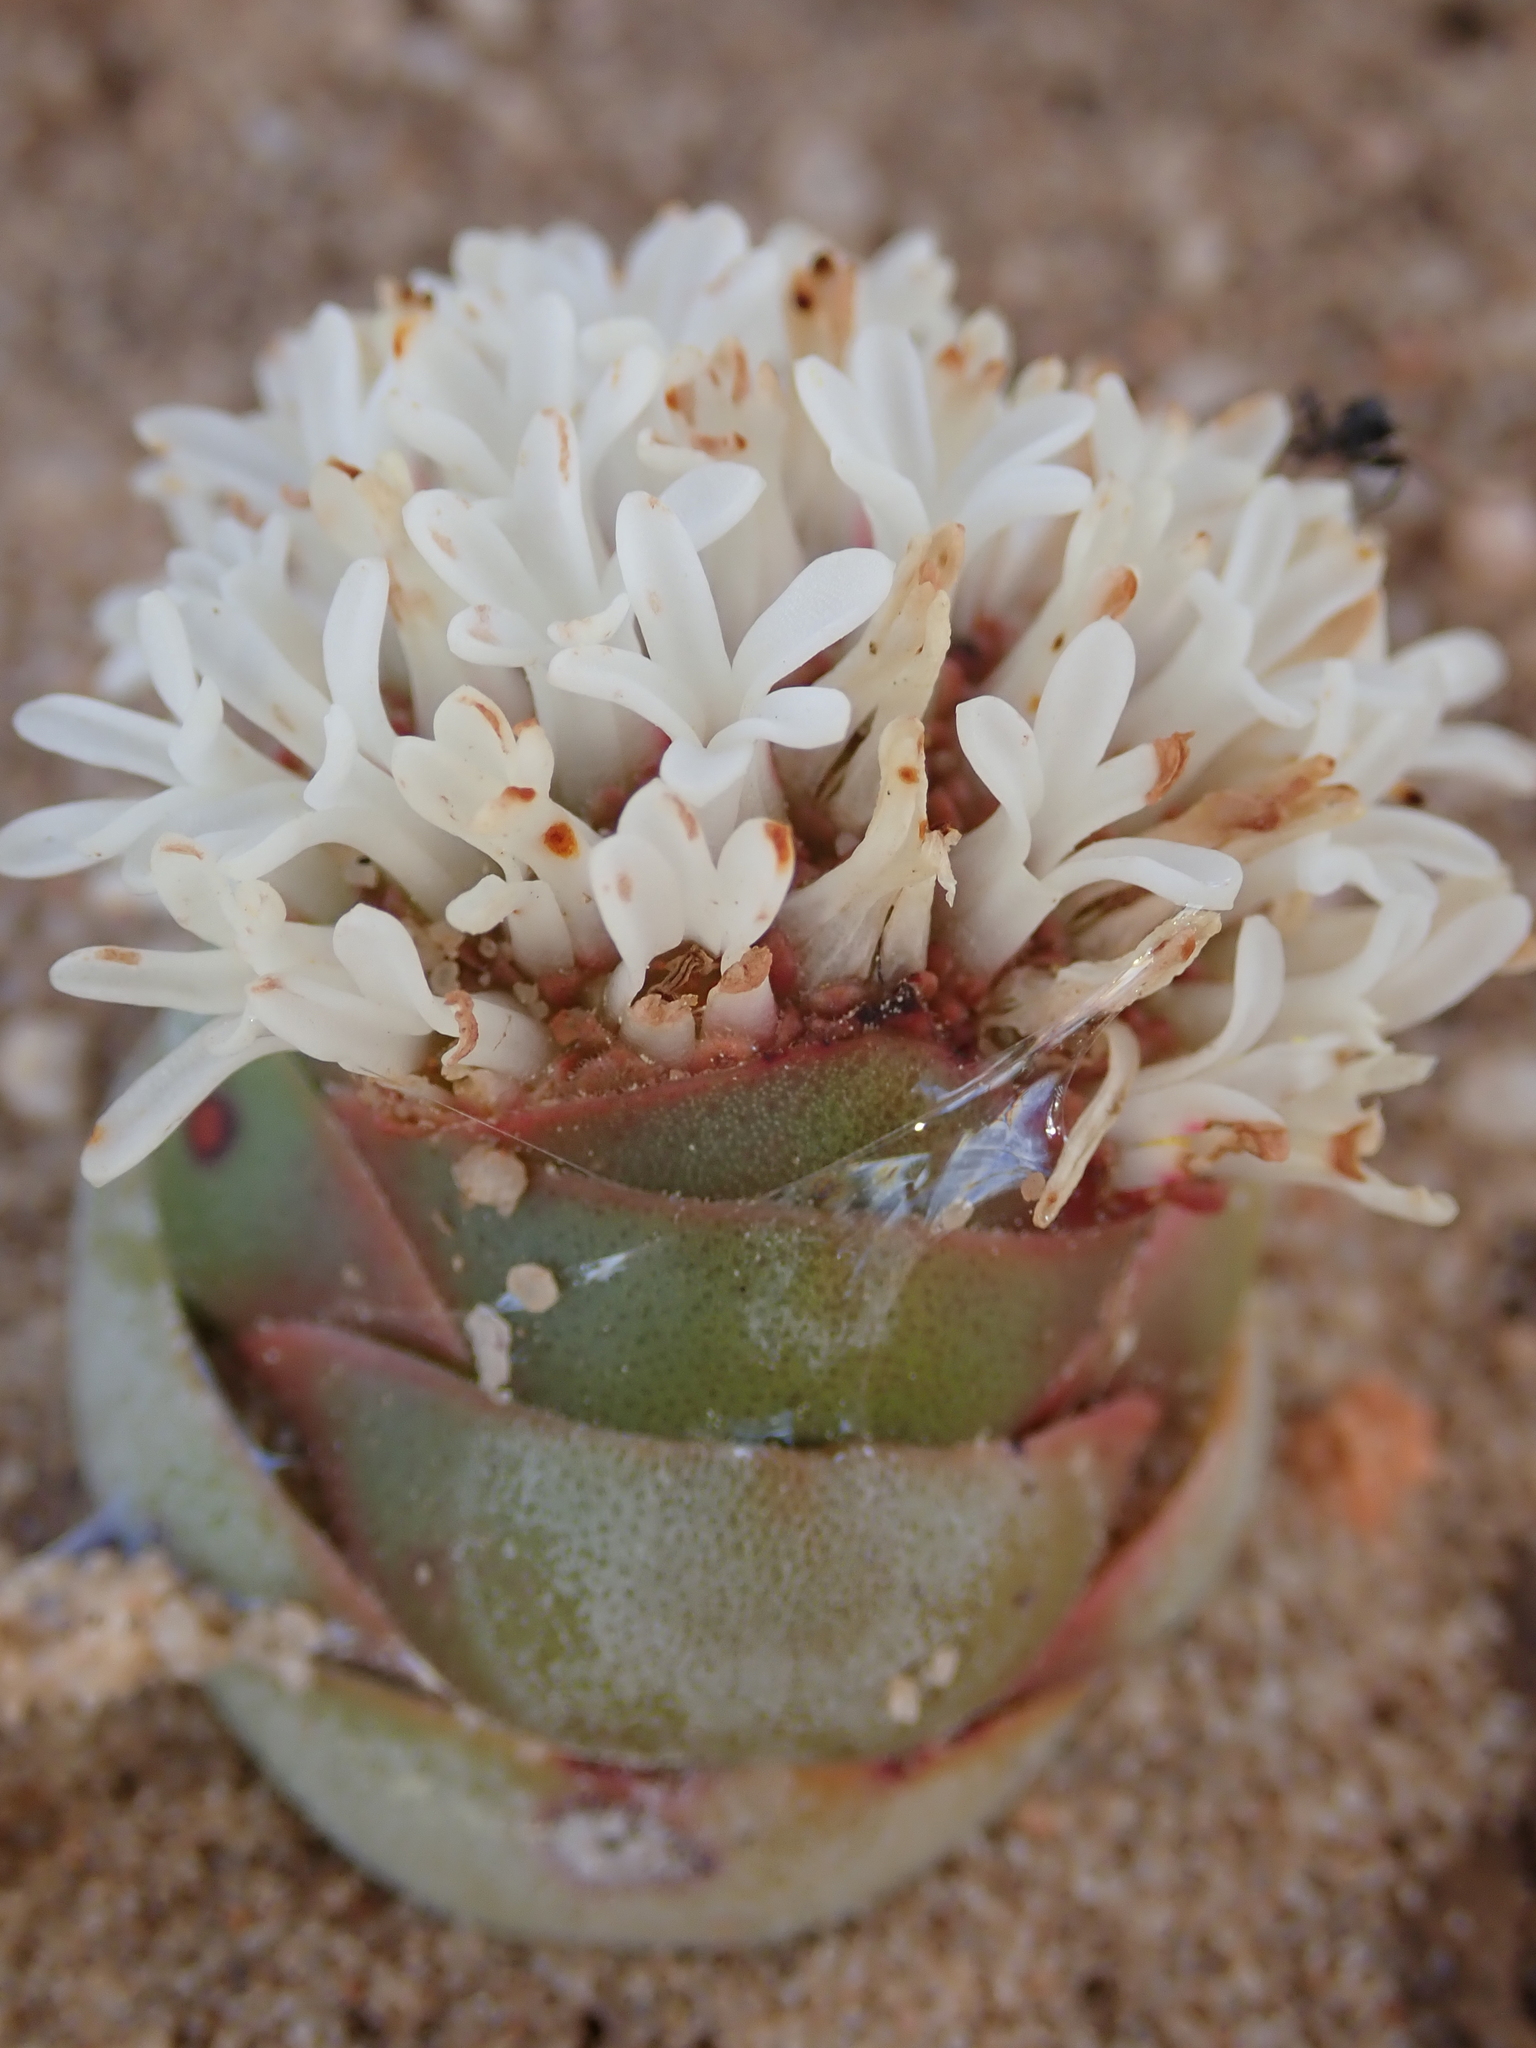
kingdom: Plantae
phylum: Tracheophyta
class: Magnoliopsida
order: Saxifragales
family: Crassulaceae
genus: Crassula
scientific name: Crassula columnaris
